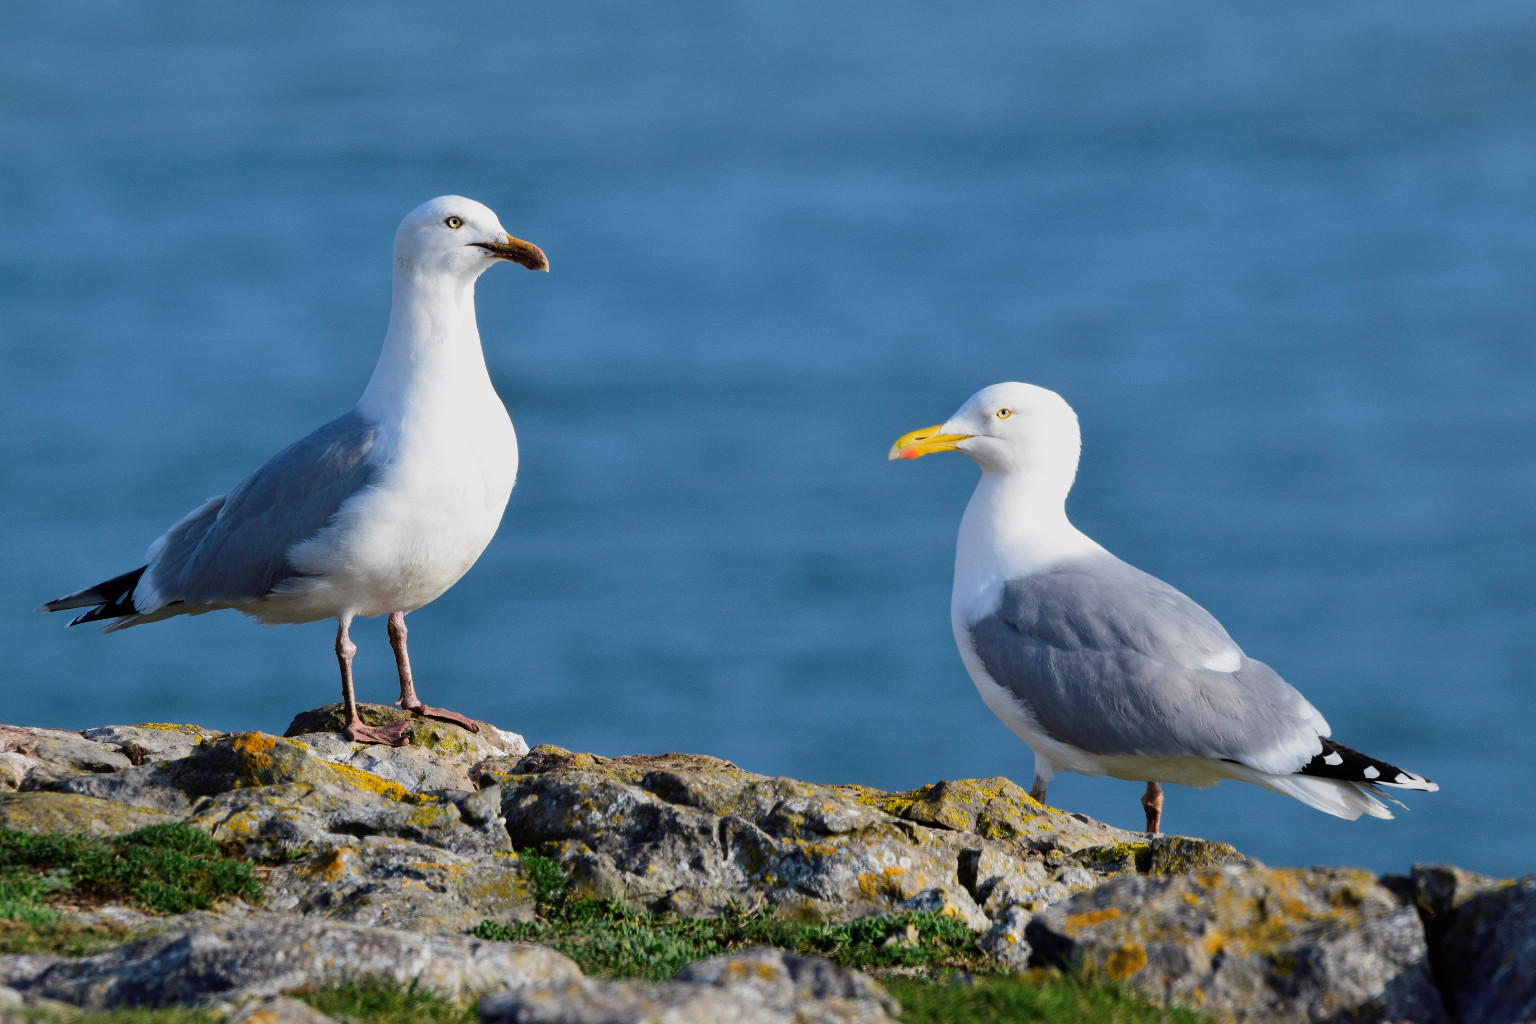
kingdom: Animalia
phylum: Chordata
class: Aves
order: Charadriiformes
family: Laridae
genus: Larus
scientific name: Larus argentatus
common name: Herring gull
